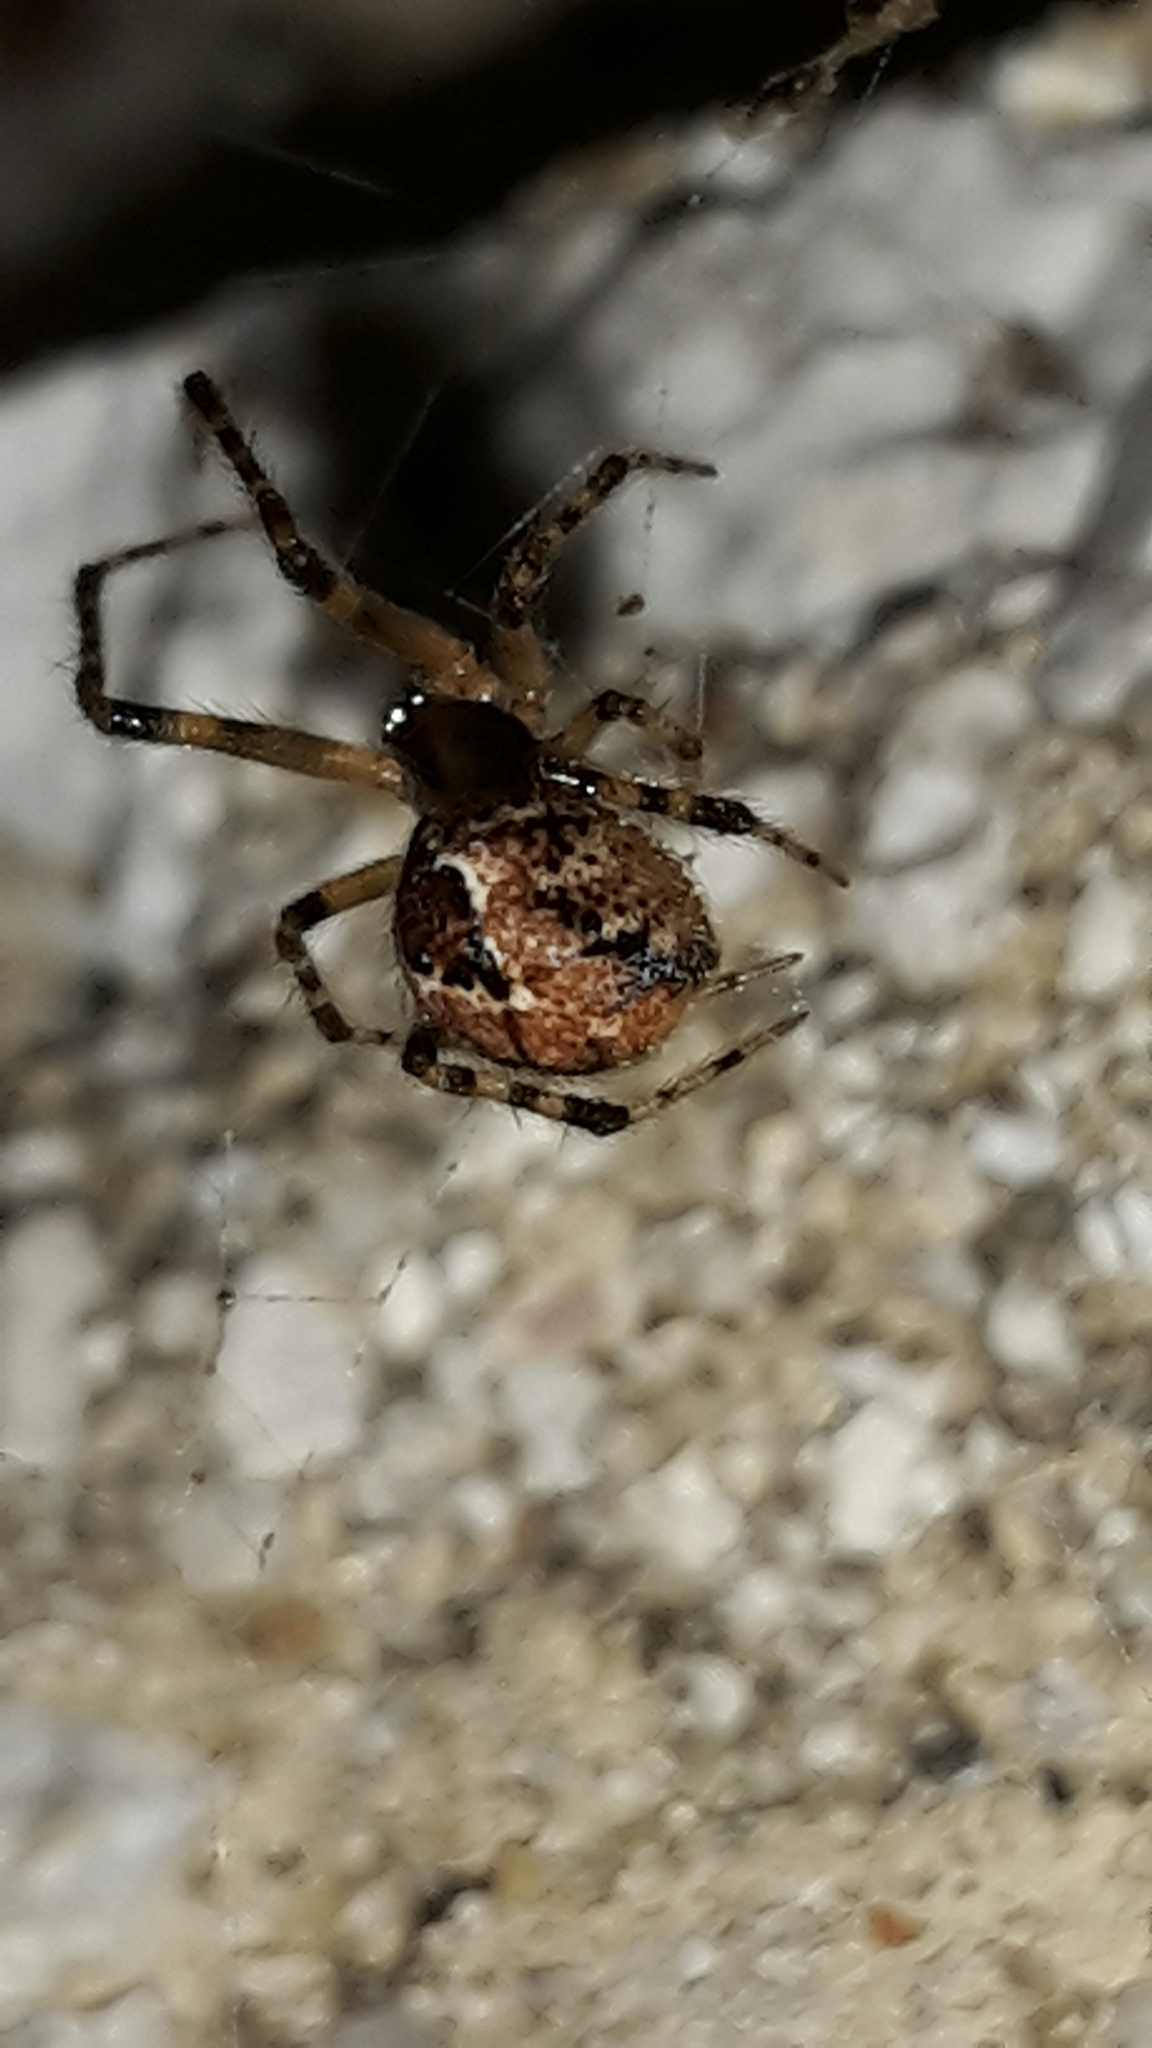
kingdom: Animalia
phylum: Arthropoda
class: Arachnida
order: Araneae
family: Theridiidae
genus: Cryptachaea
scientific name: Cryptachaea veruculata
